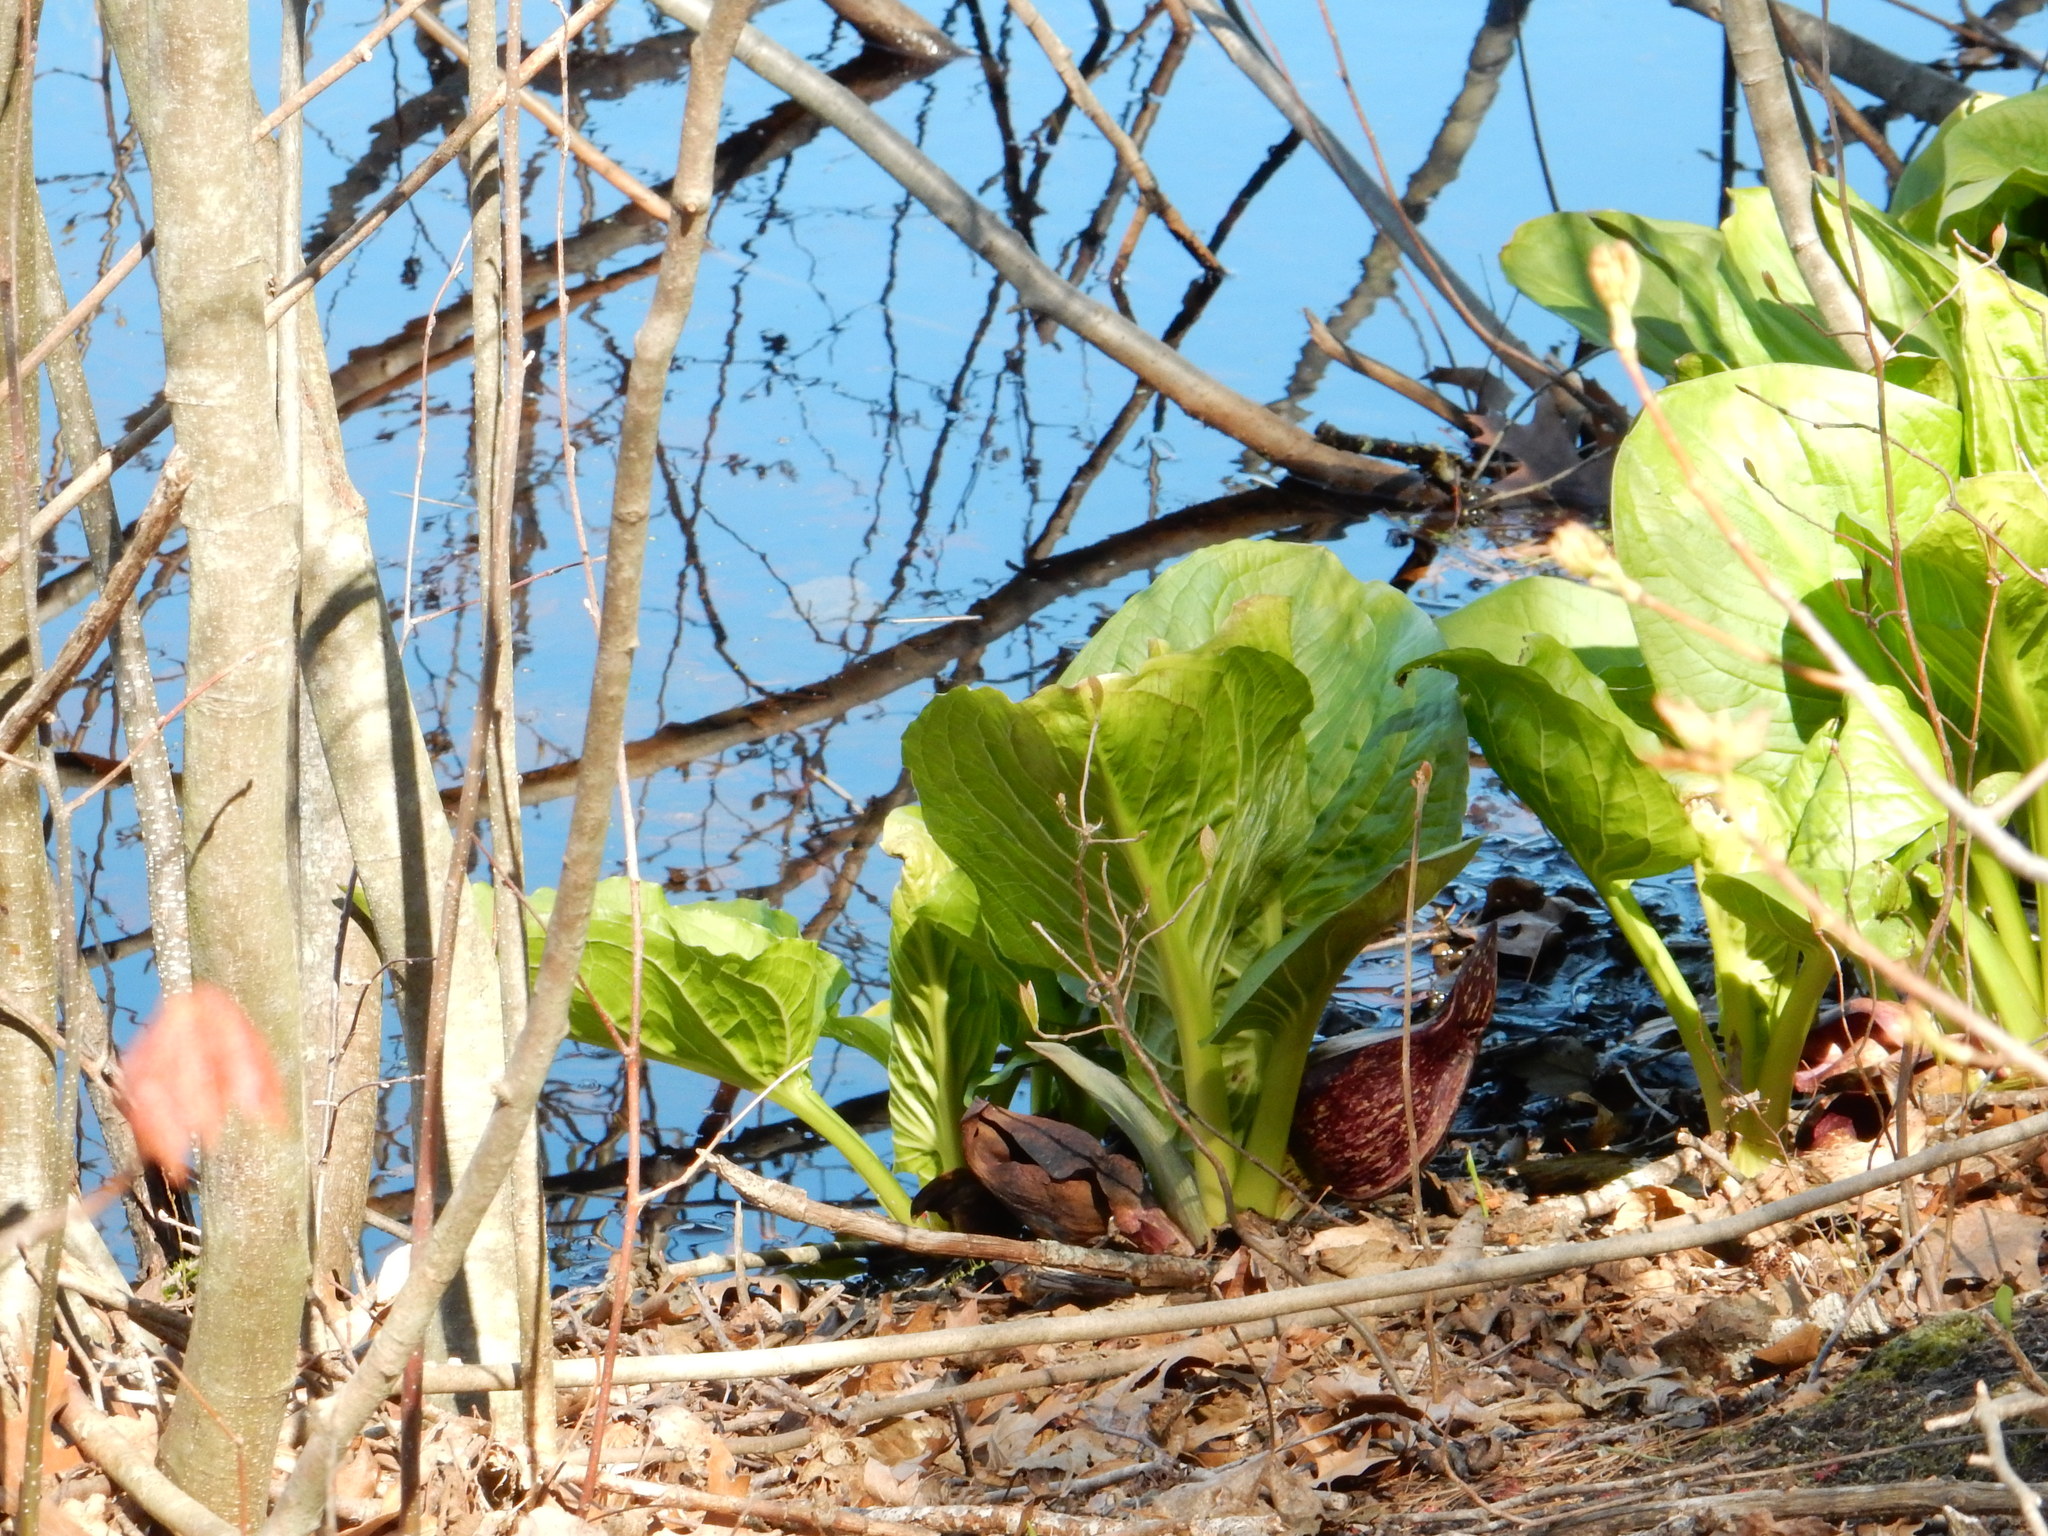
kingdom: Plantae
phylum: Tracheophyta
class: Liliopsida
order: Alismatales
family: Araceae
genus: Symplocarpus
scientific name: Symplocarpus foetidus
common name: Eastern skunk cabbage
